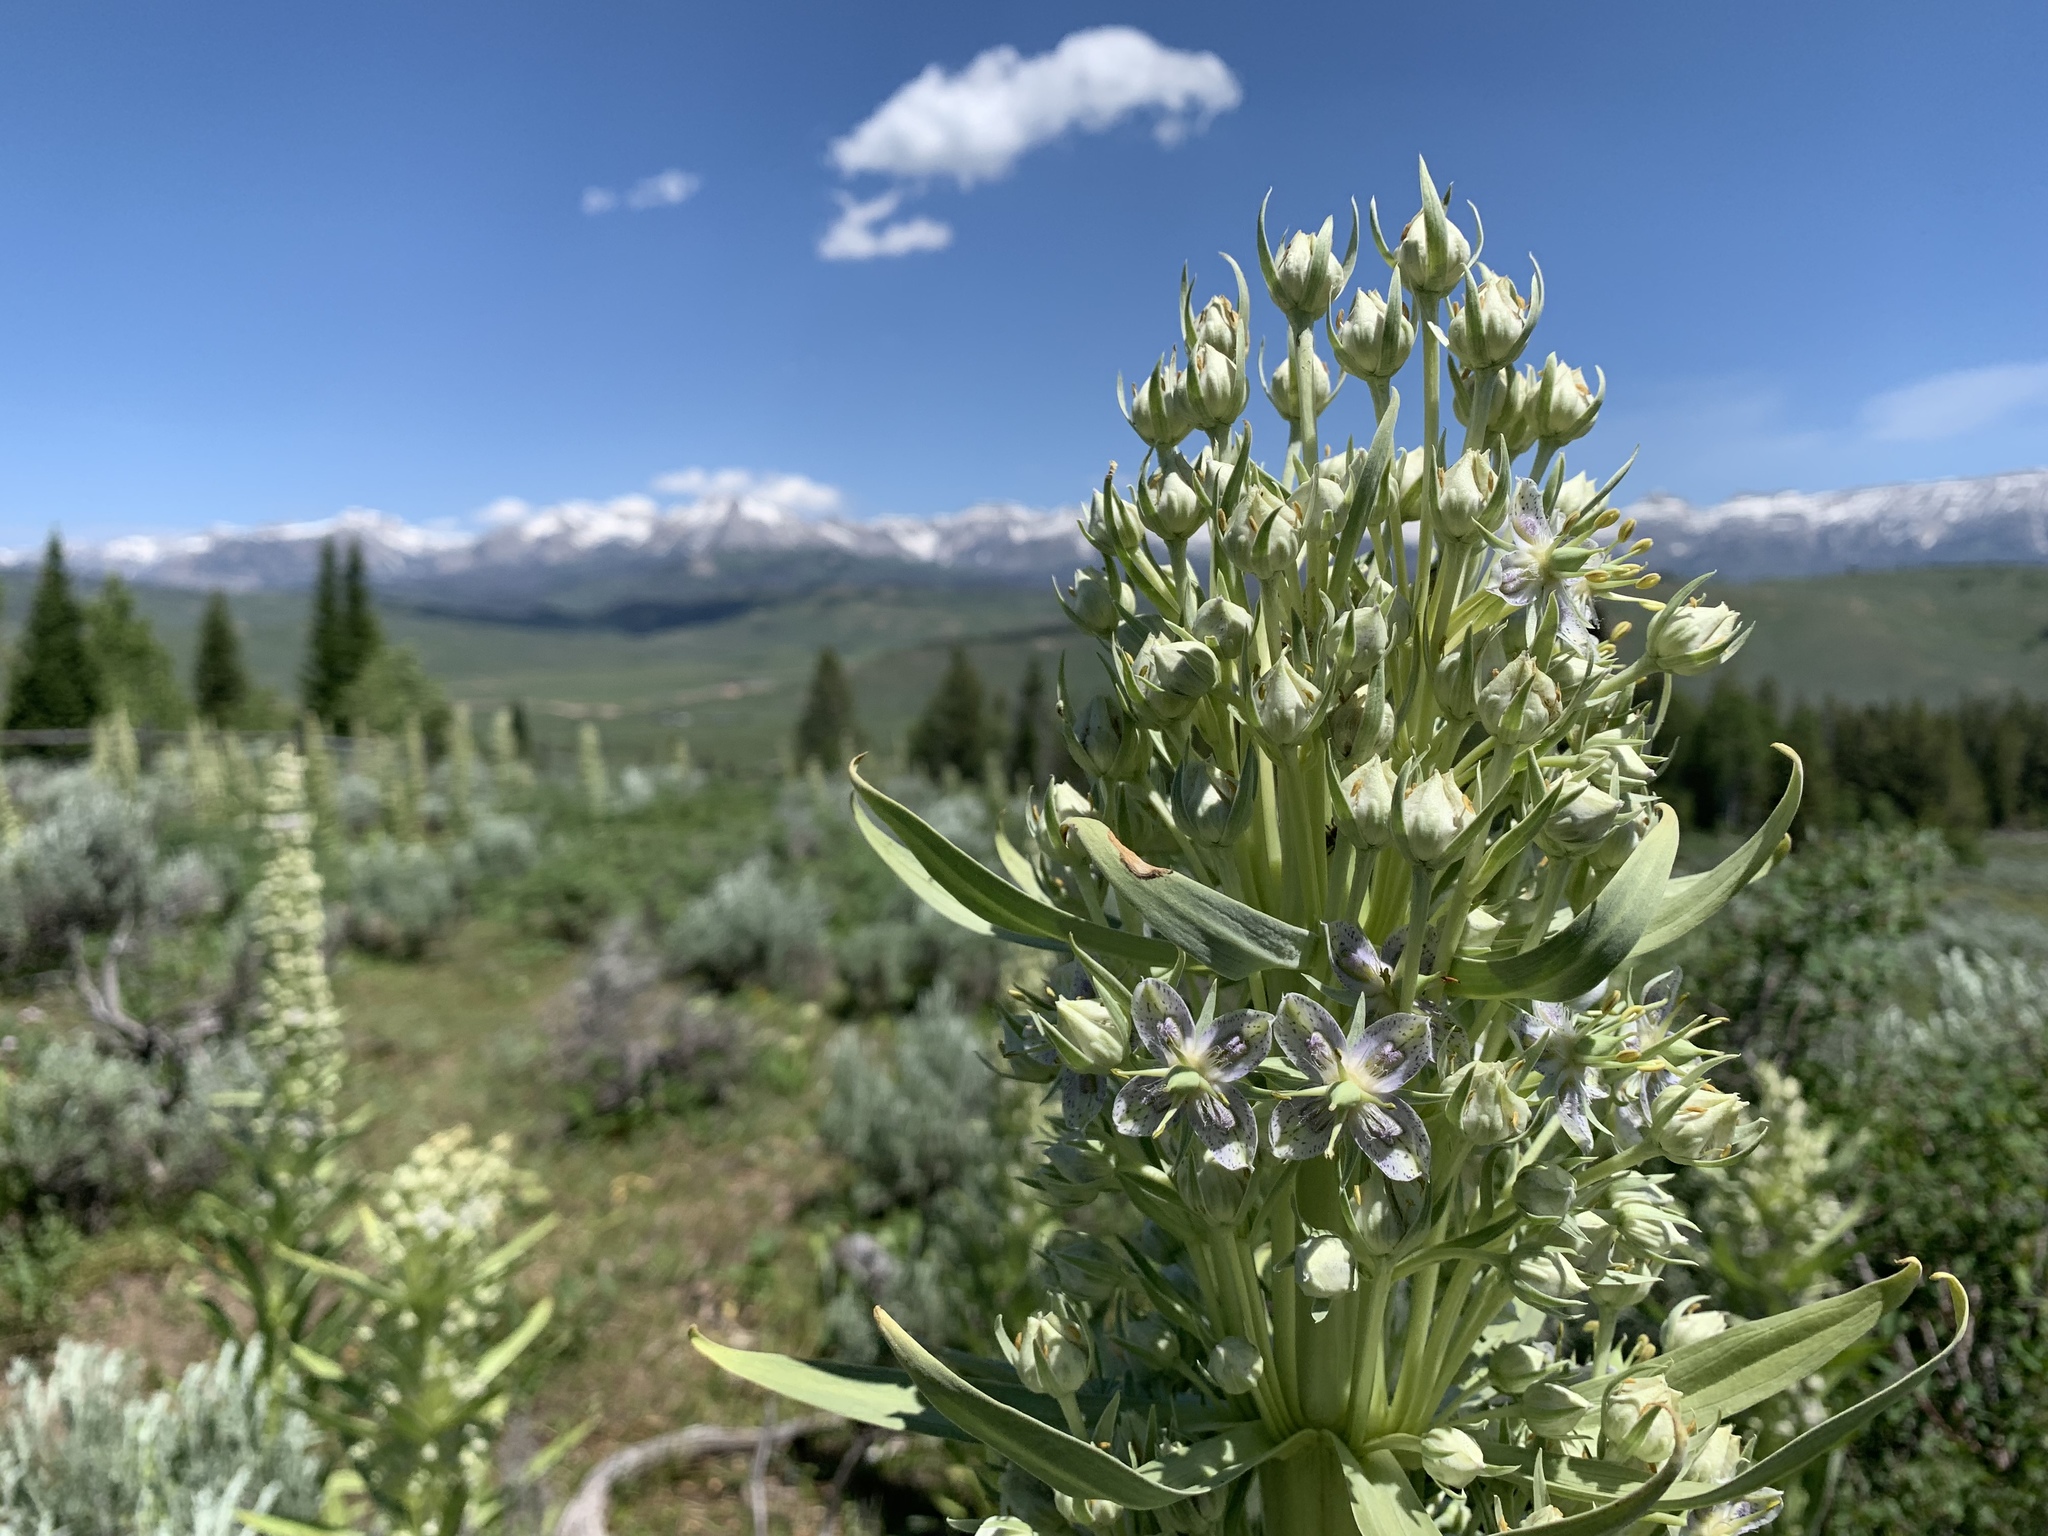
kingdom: Plantae
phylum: Tracheophyta
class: Magnoliopsida
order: Gentianales
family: Gentianaceae
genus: Frasera
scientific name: Frasera speciosa
